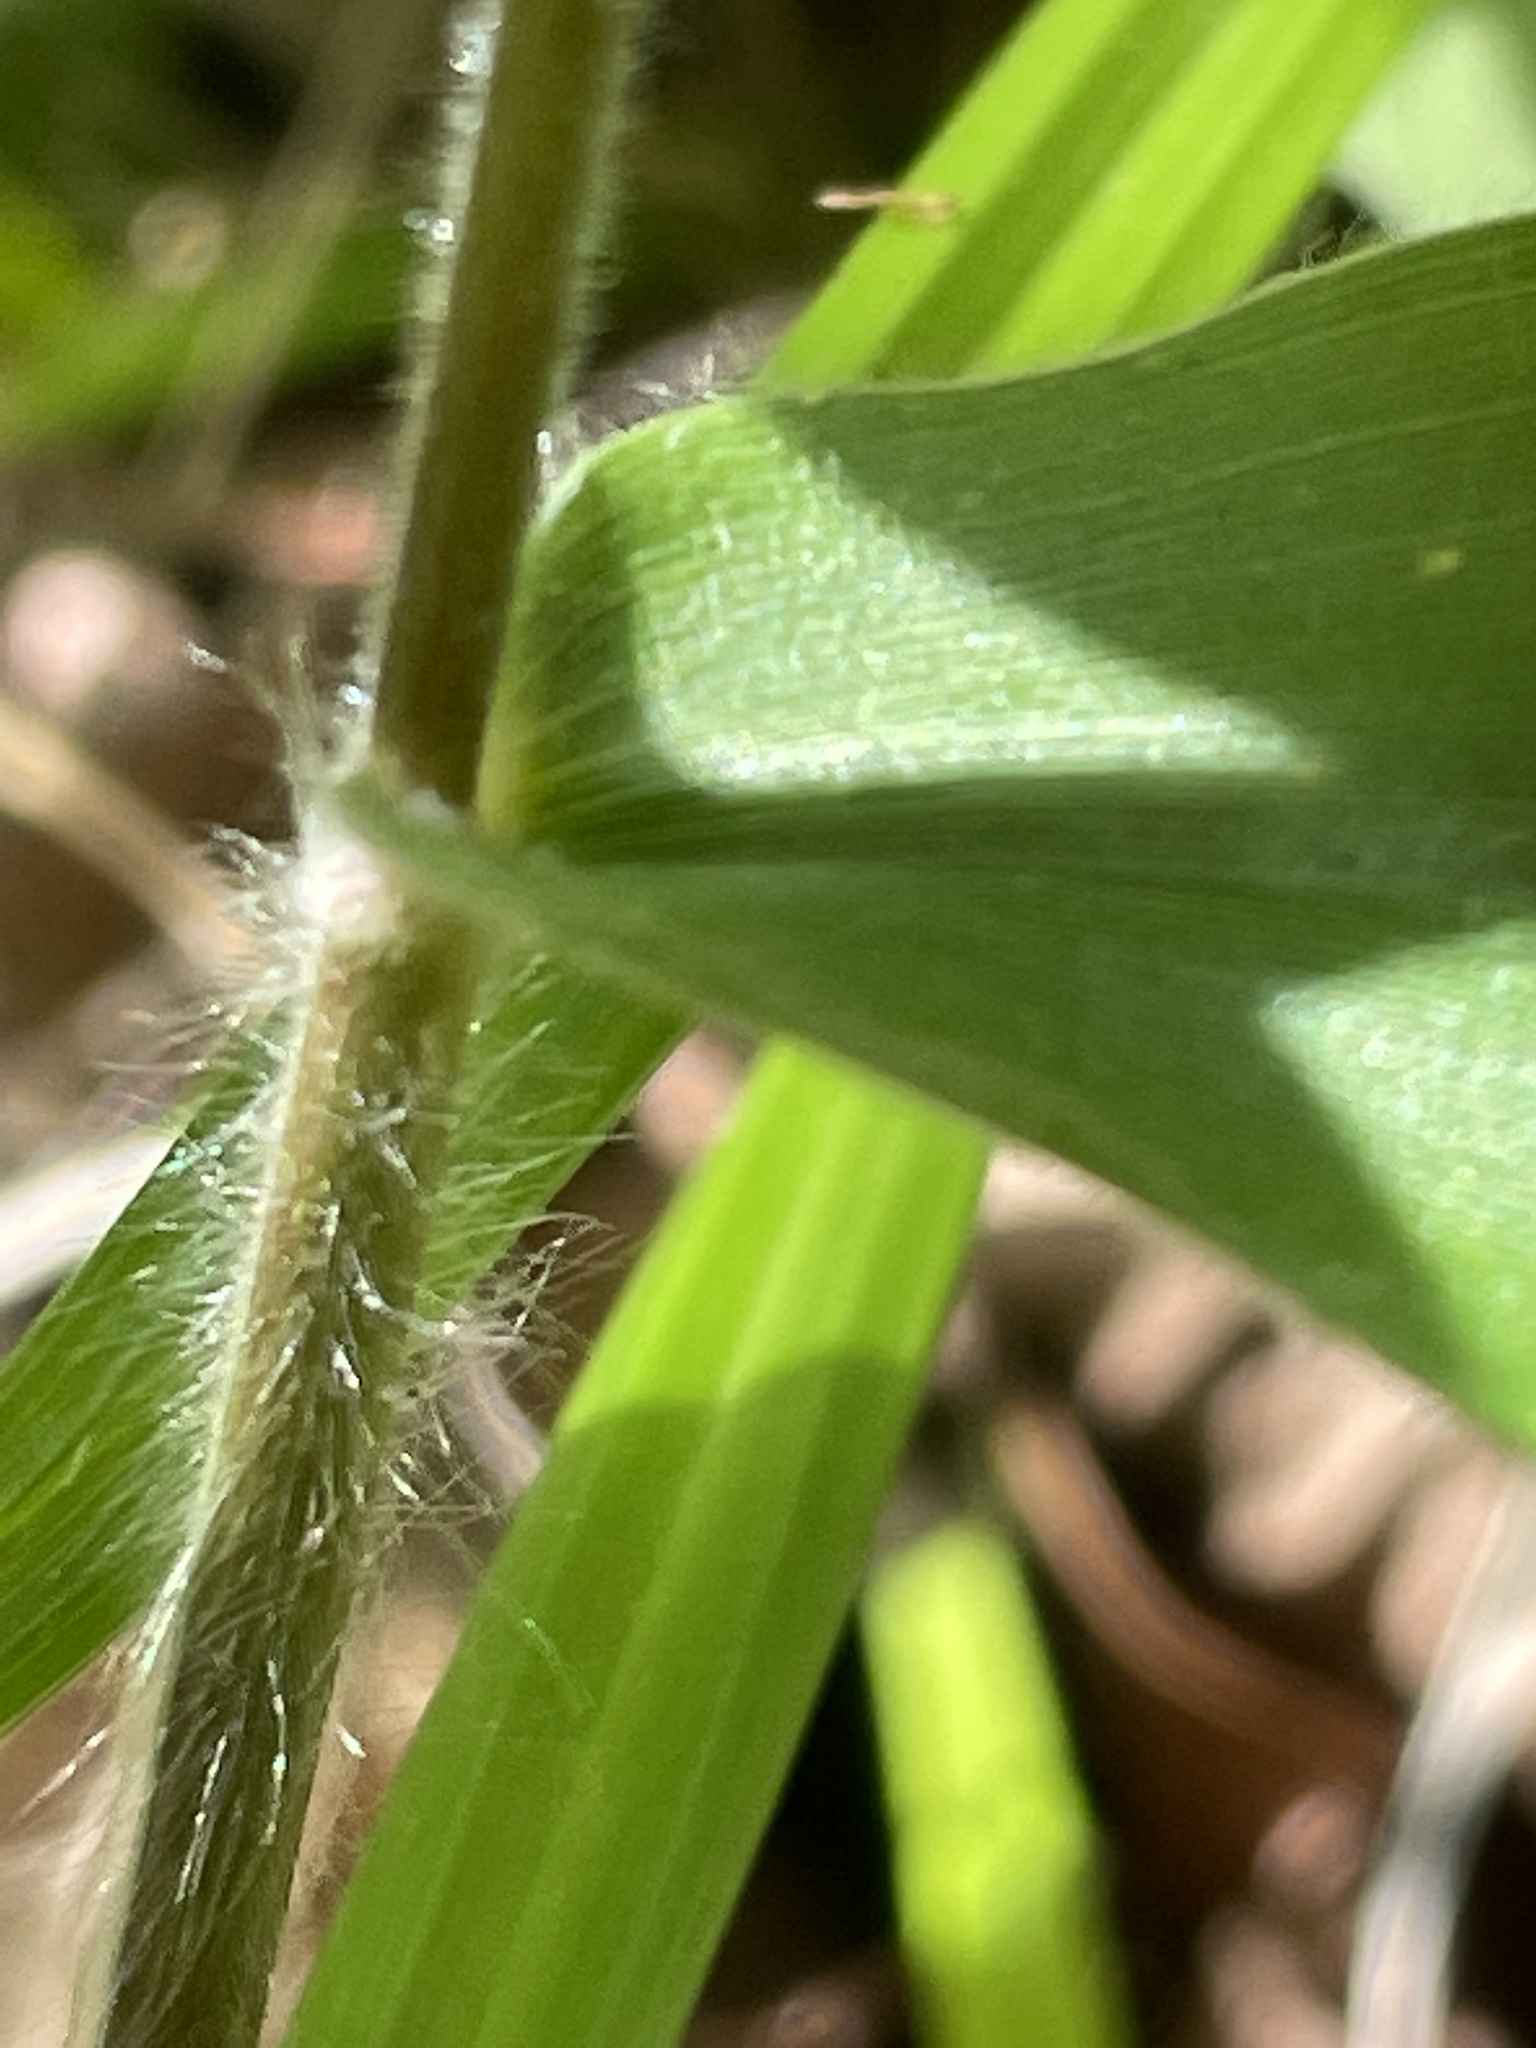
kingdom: Plantae
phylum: Tracheophyta
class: Liliopsida
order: Poales
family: Poaceae
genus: Dichanthelium
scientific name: Dichanthelium boscii
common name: Bosc's panic grass
